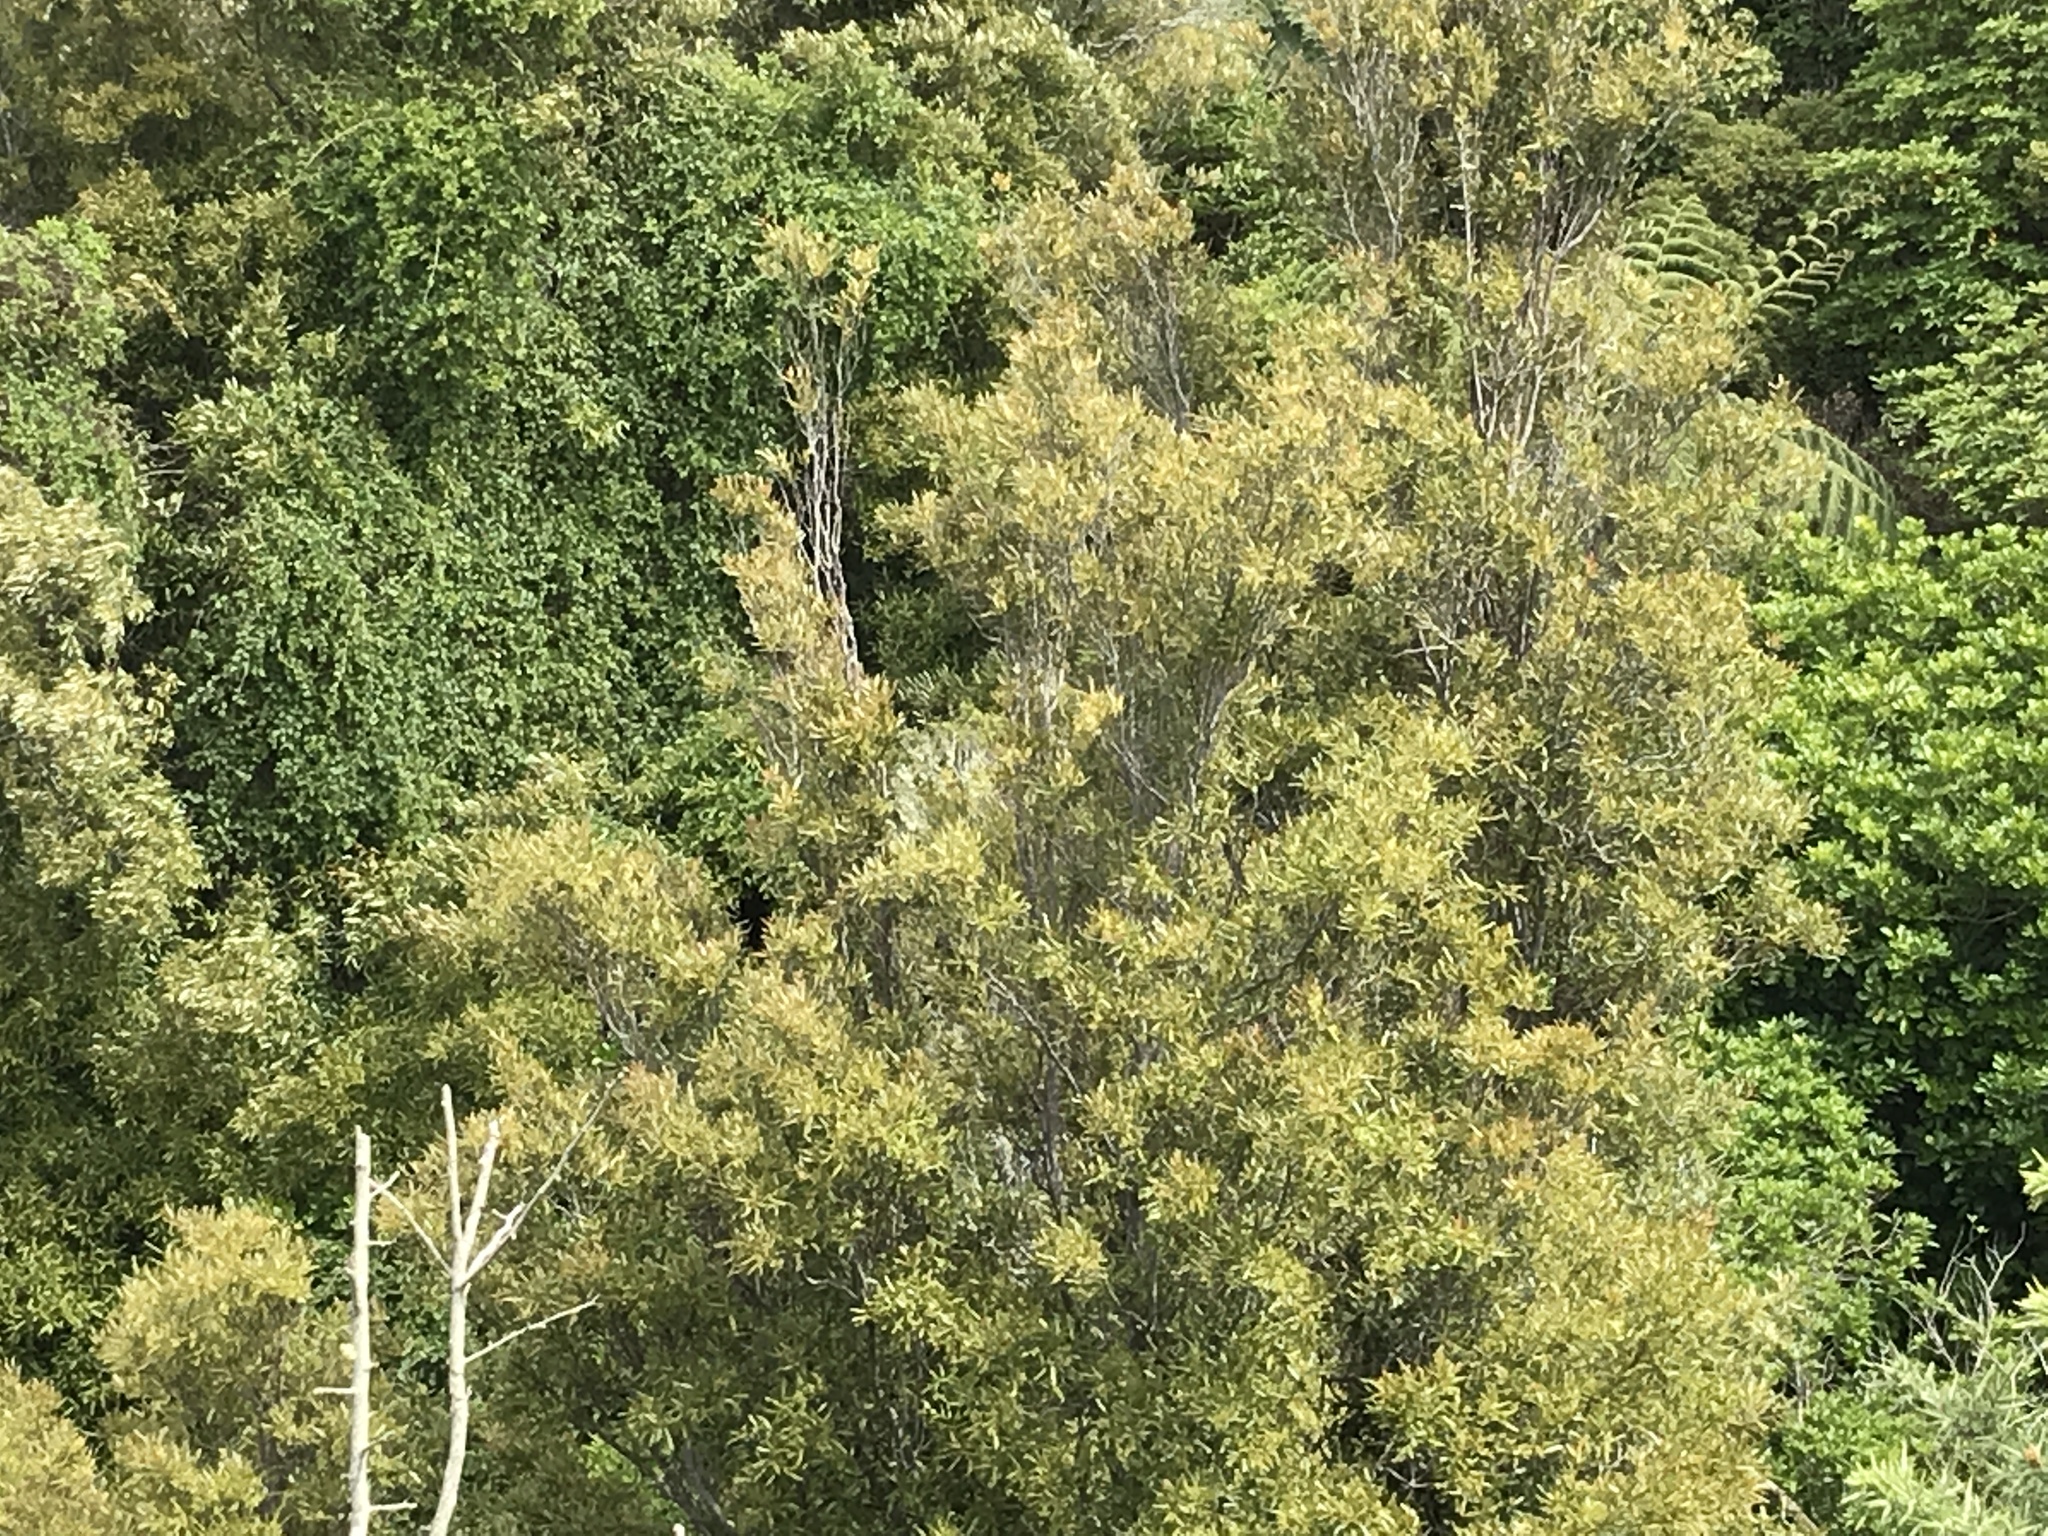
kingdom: Plantae
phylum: Tracheophyta
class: Magnoliopsida
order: Laurales
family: Lauraceae
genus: Beilschmiedia
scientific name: Beilschmiedia tawa
